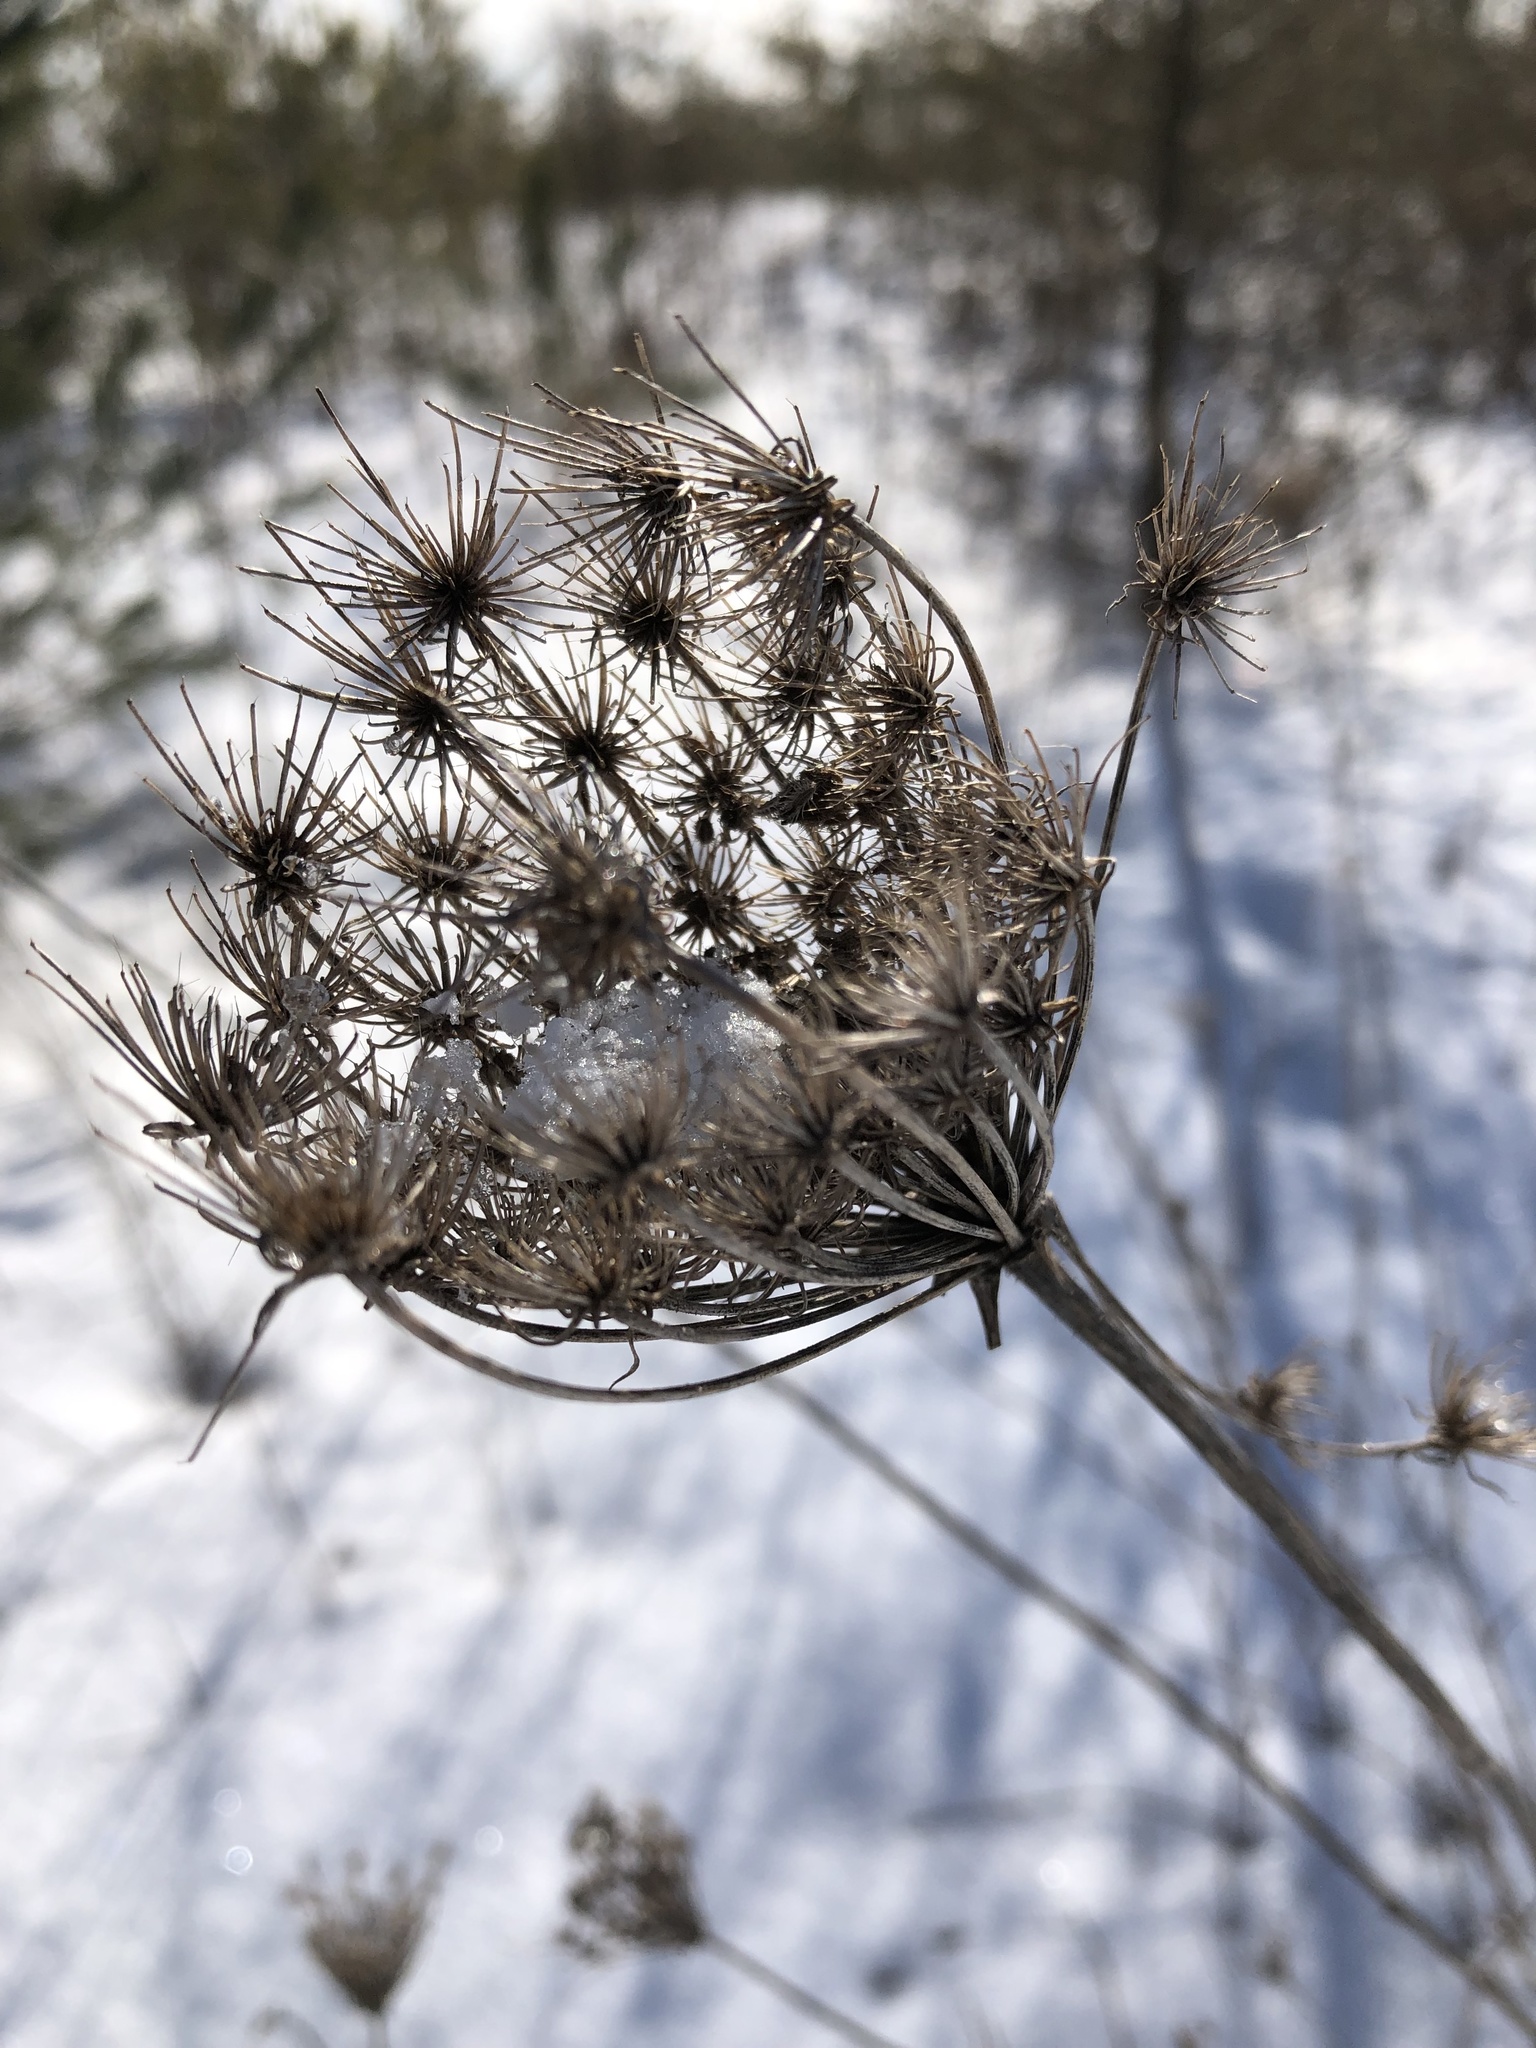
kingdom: Plantae
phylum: Tracheophyta
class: Magnoliopsida
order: Apiales
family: Apiaceae
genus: Daucus
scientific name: Daucus carota
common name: Wild carrot
